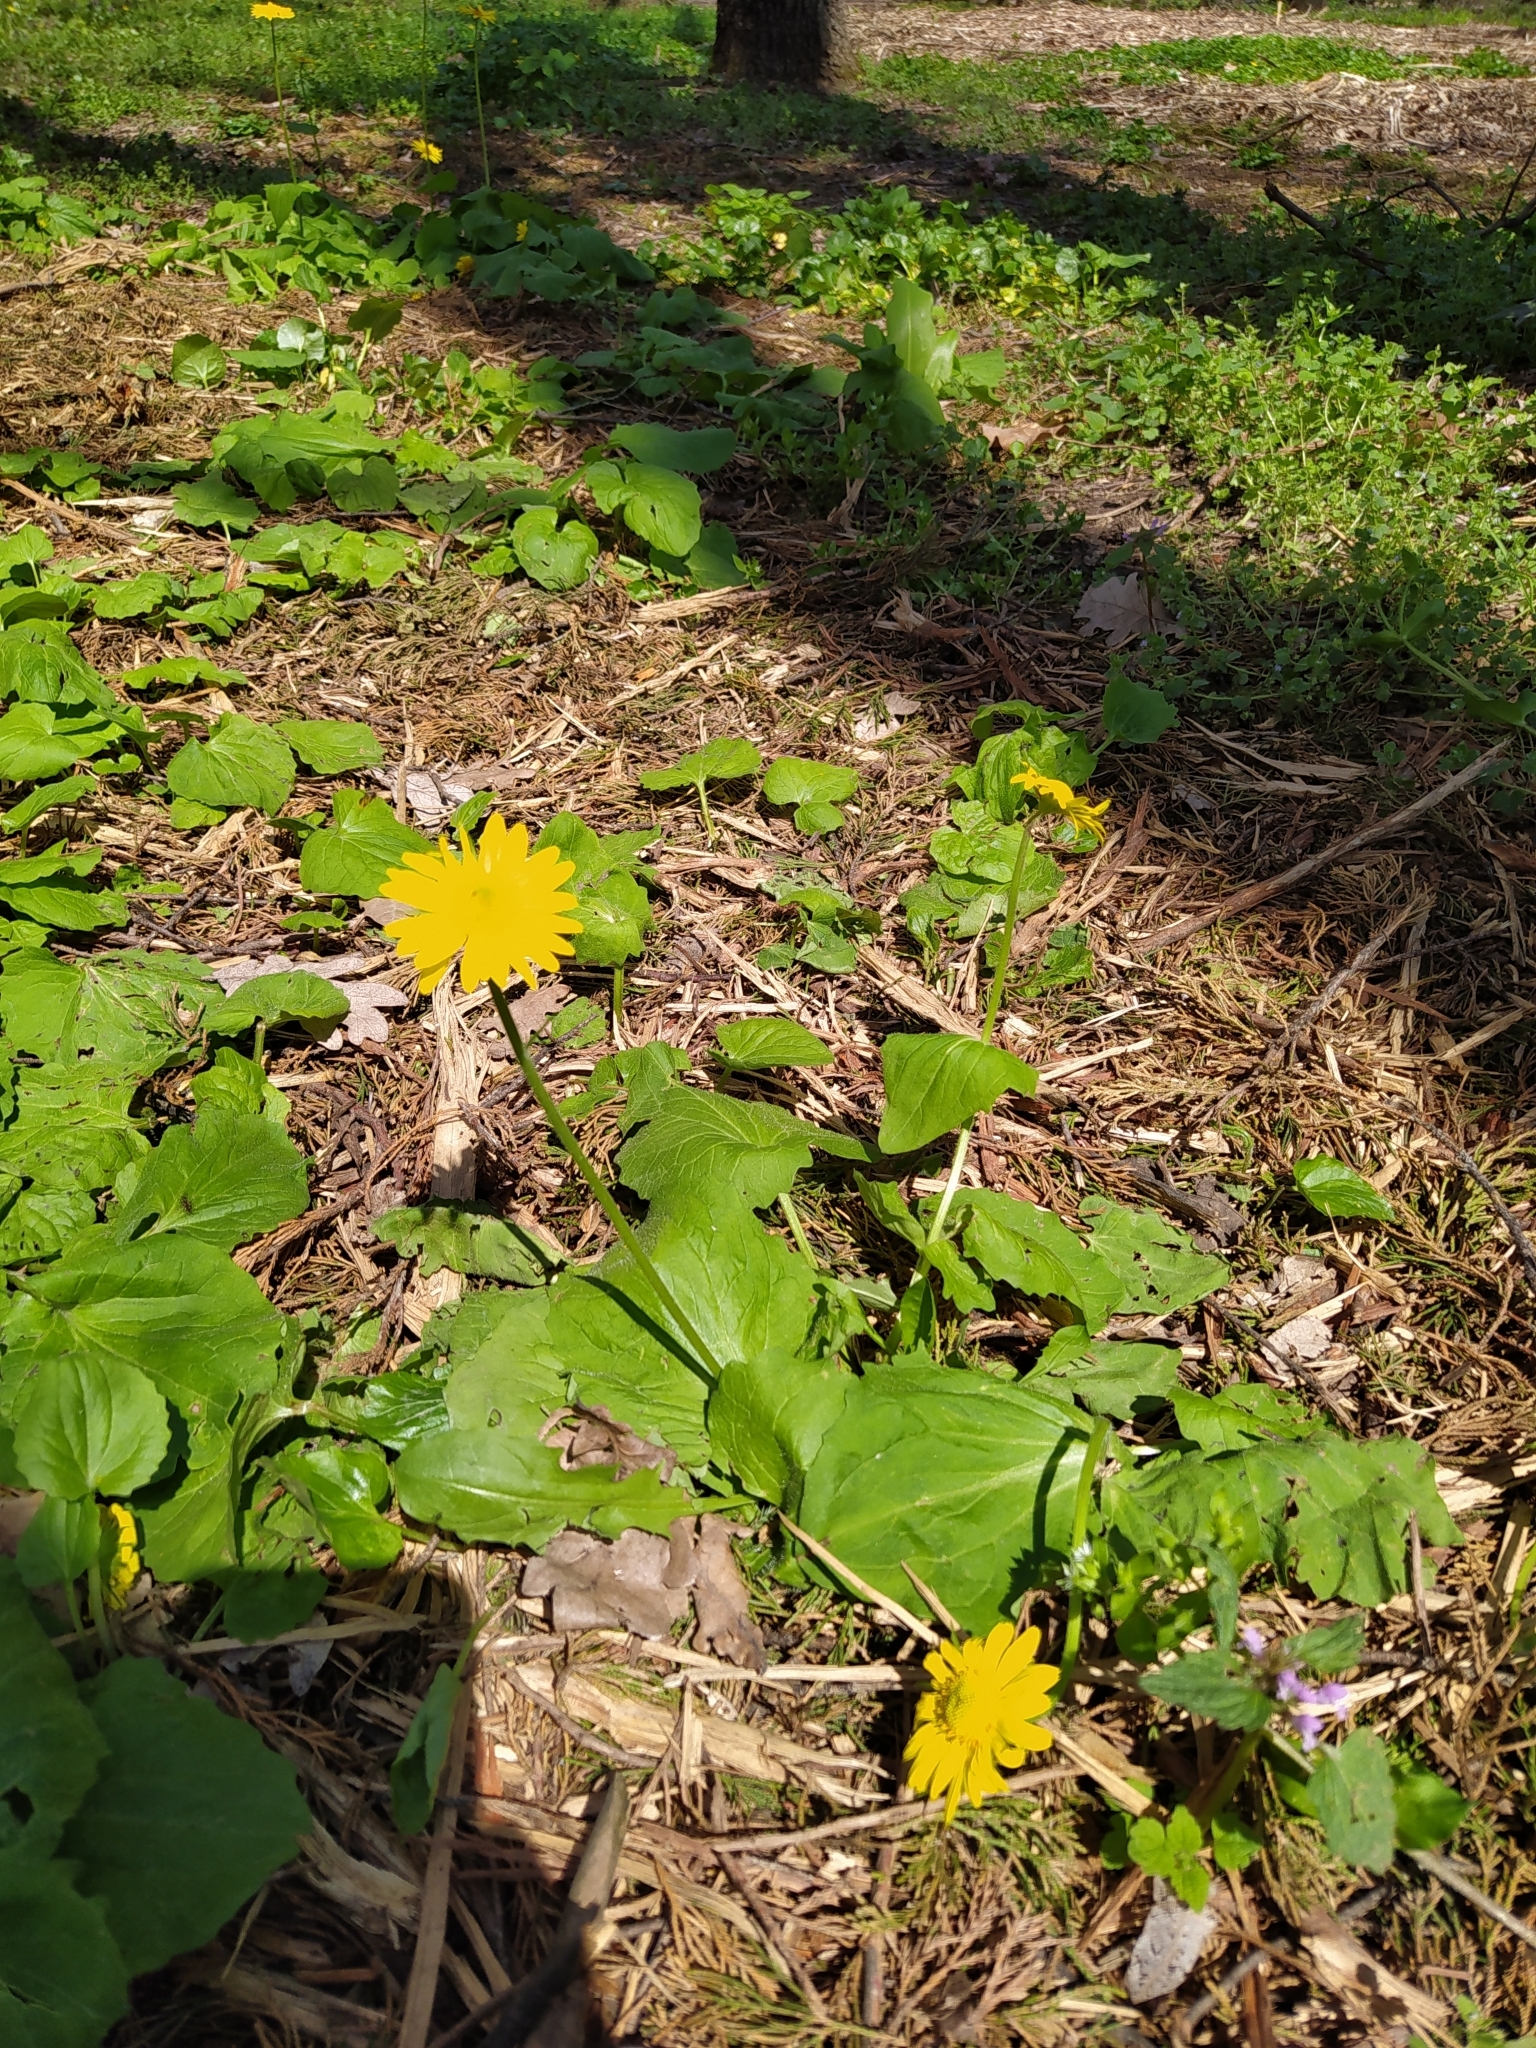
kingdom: Plantae
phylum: Tracheophyta
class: Magnoliopsida
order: Asterales
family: Asteraceae
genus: Doronicum
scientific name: Doronicum
